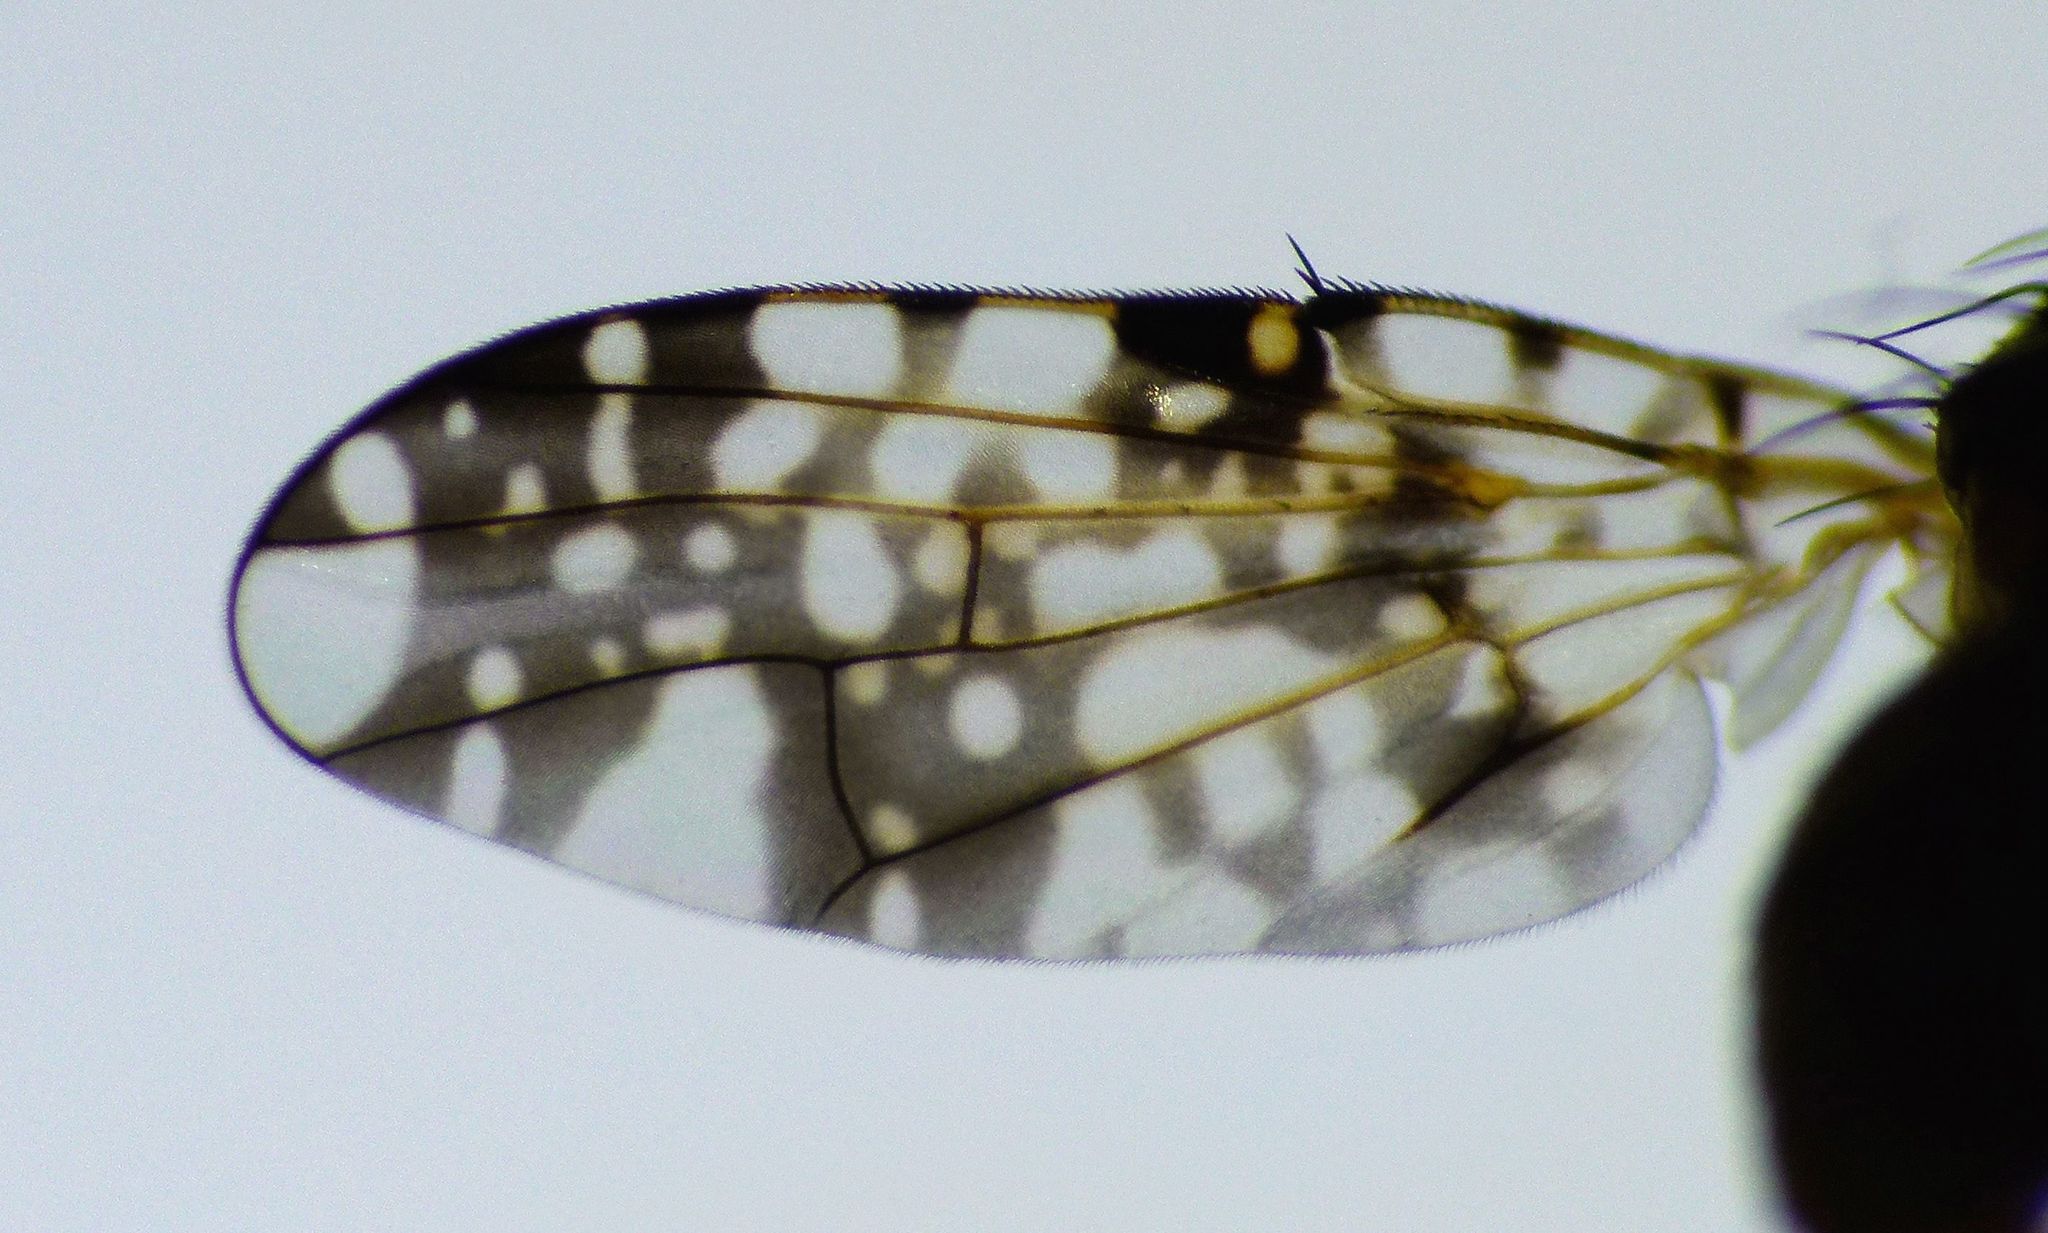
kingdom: Animalia
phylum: Arthropoda
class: Insecta
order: Diptera
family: Tephritidae
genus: Austrotephritis
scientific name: Austrotephritis
